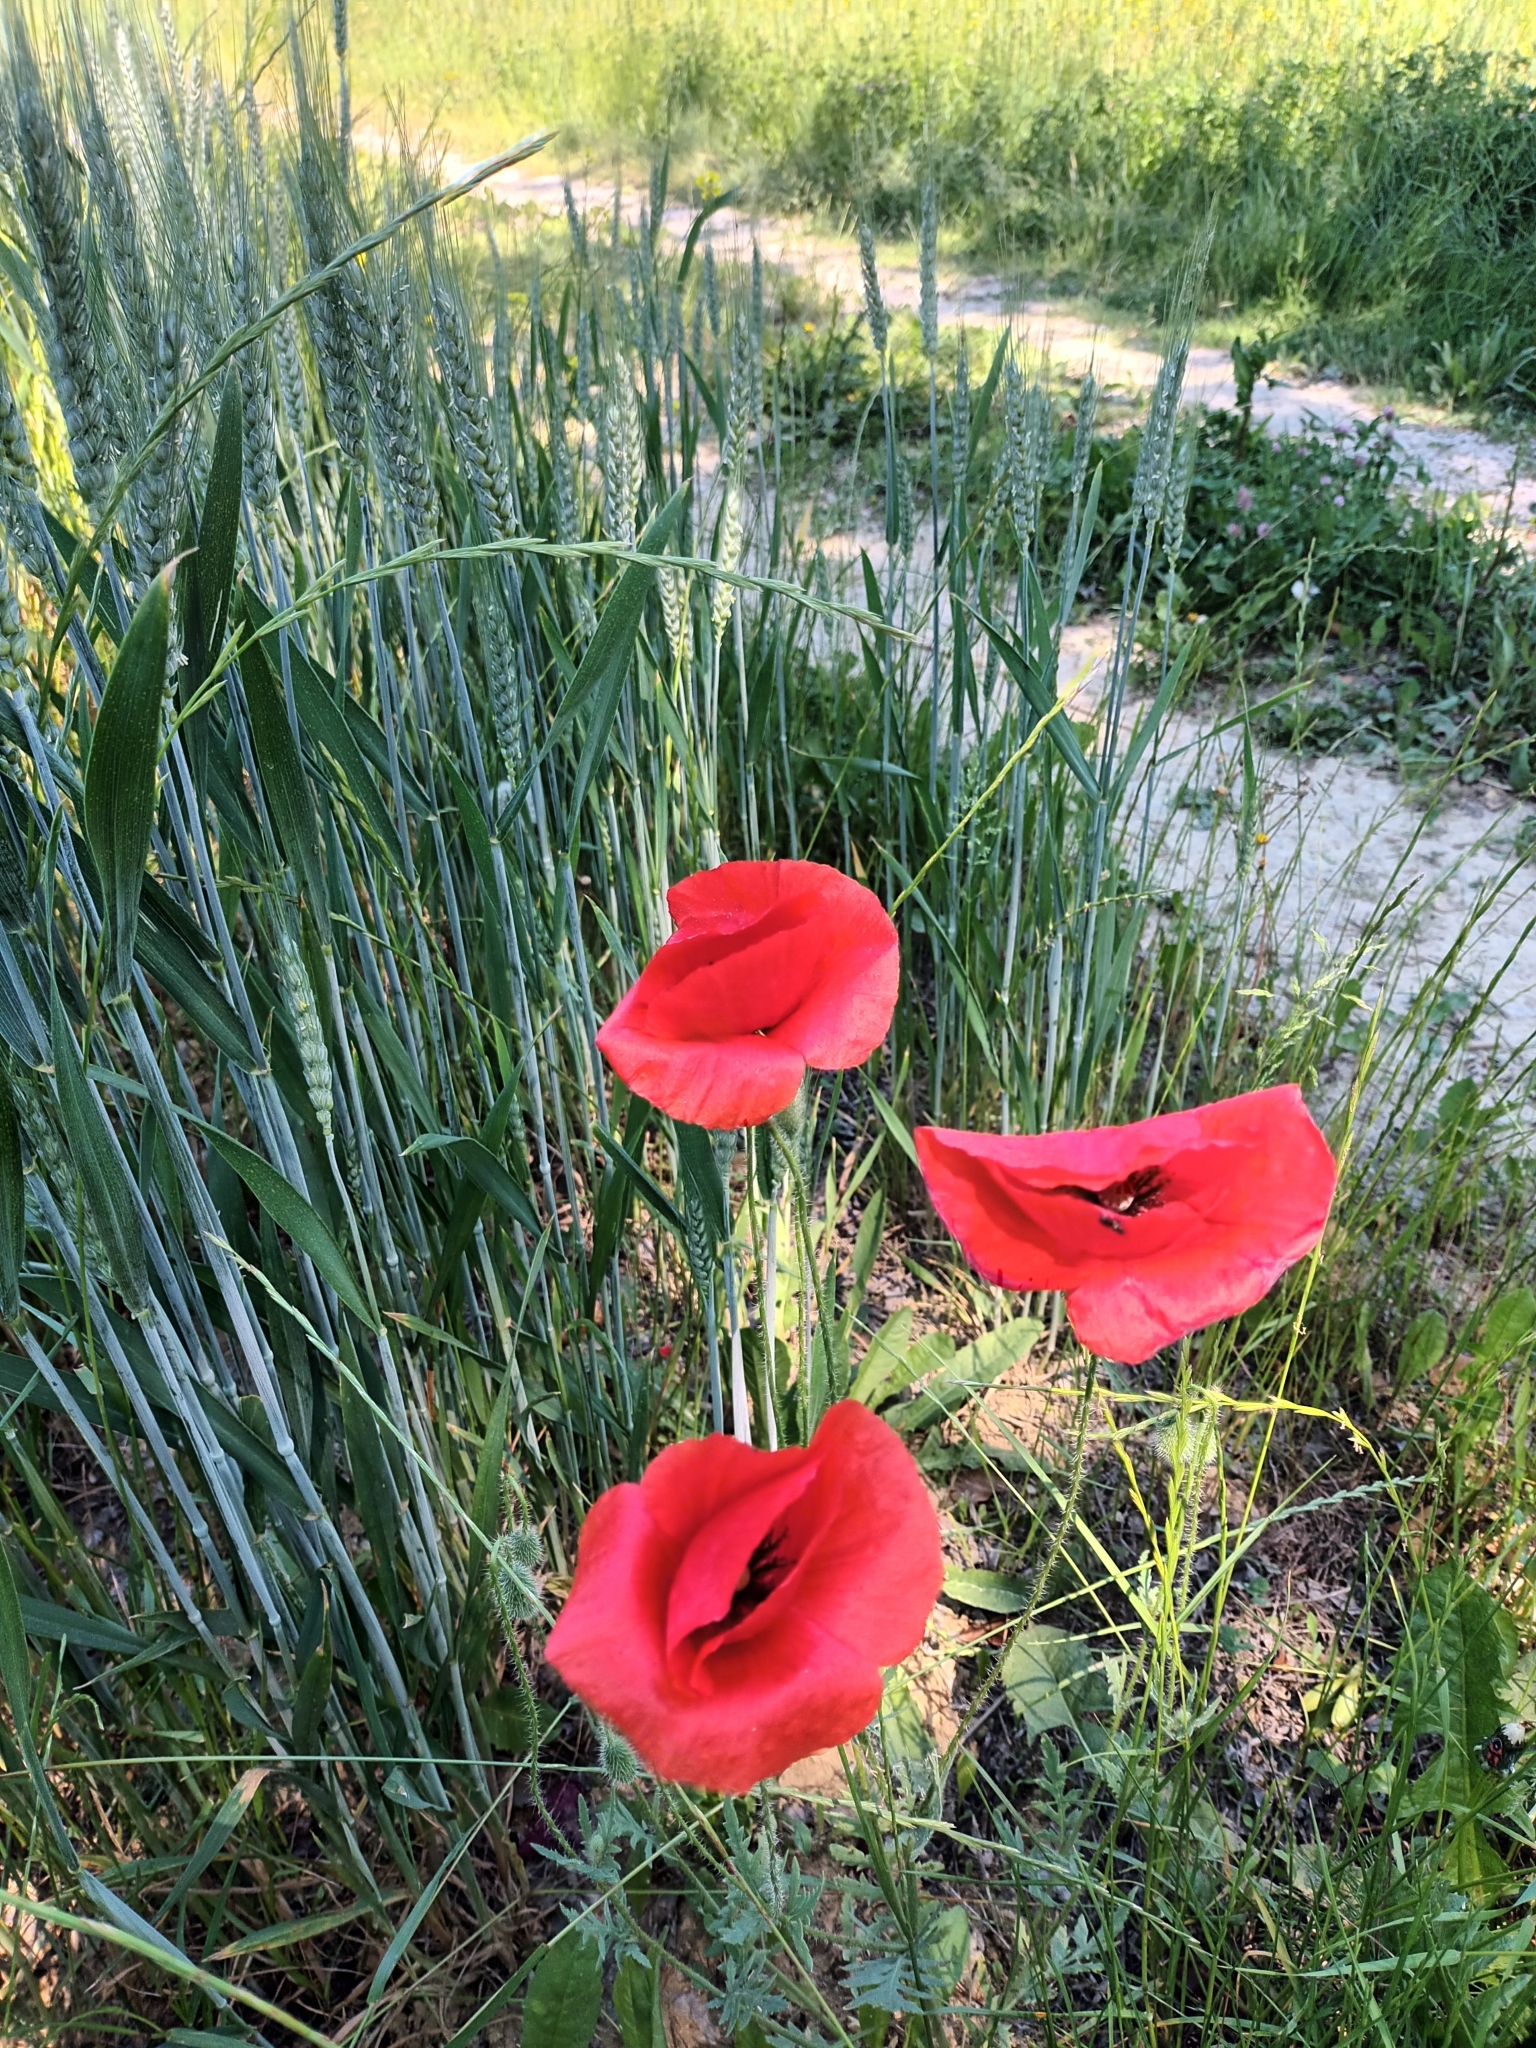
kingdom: Plantae
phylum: Tracheophyta
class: Magnoliopsida
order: Ranunculales
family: Papaveraceae
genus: Papaver
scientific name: Papaver rhoeas
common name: Corn poppy
